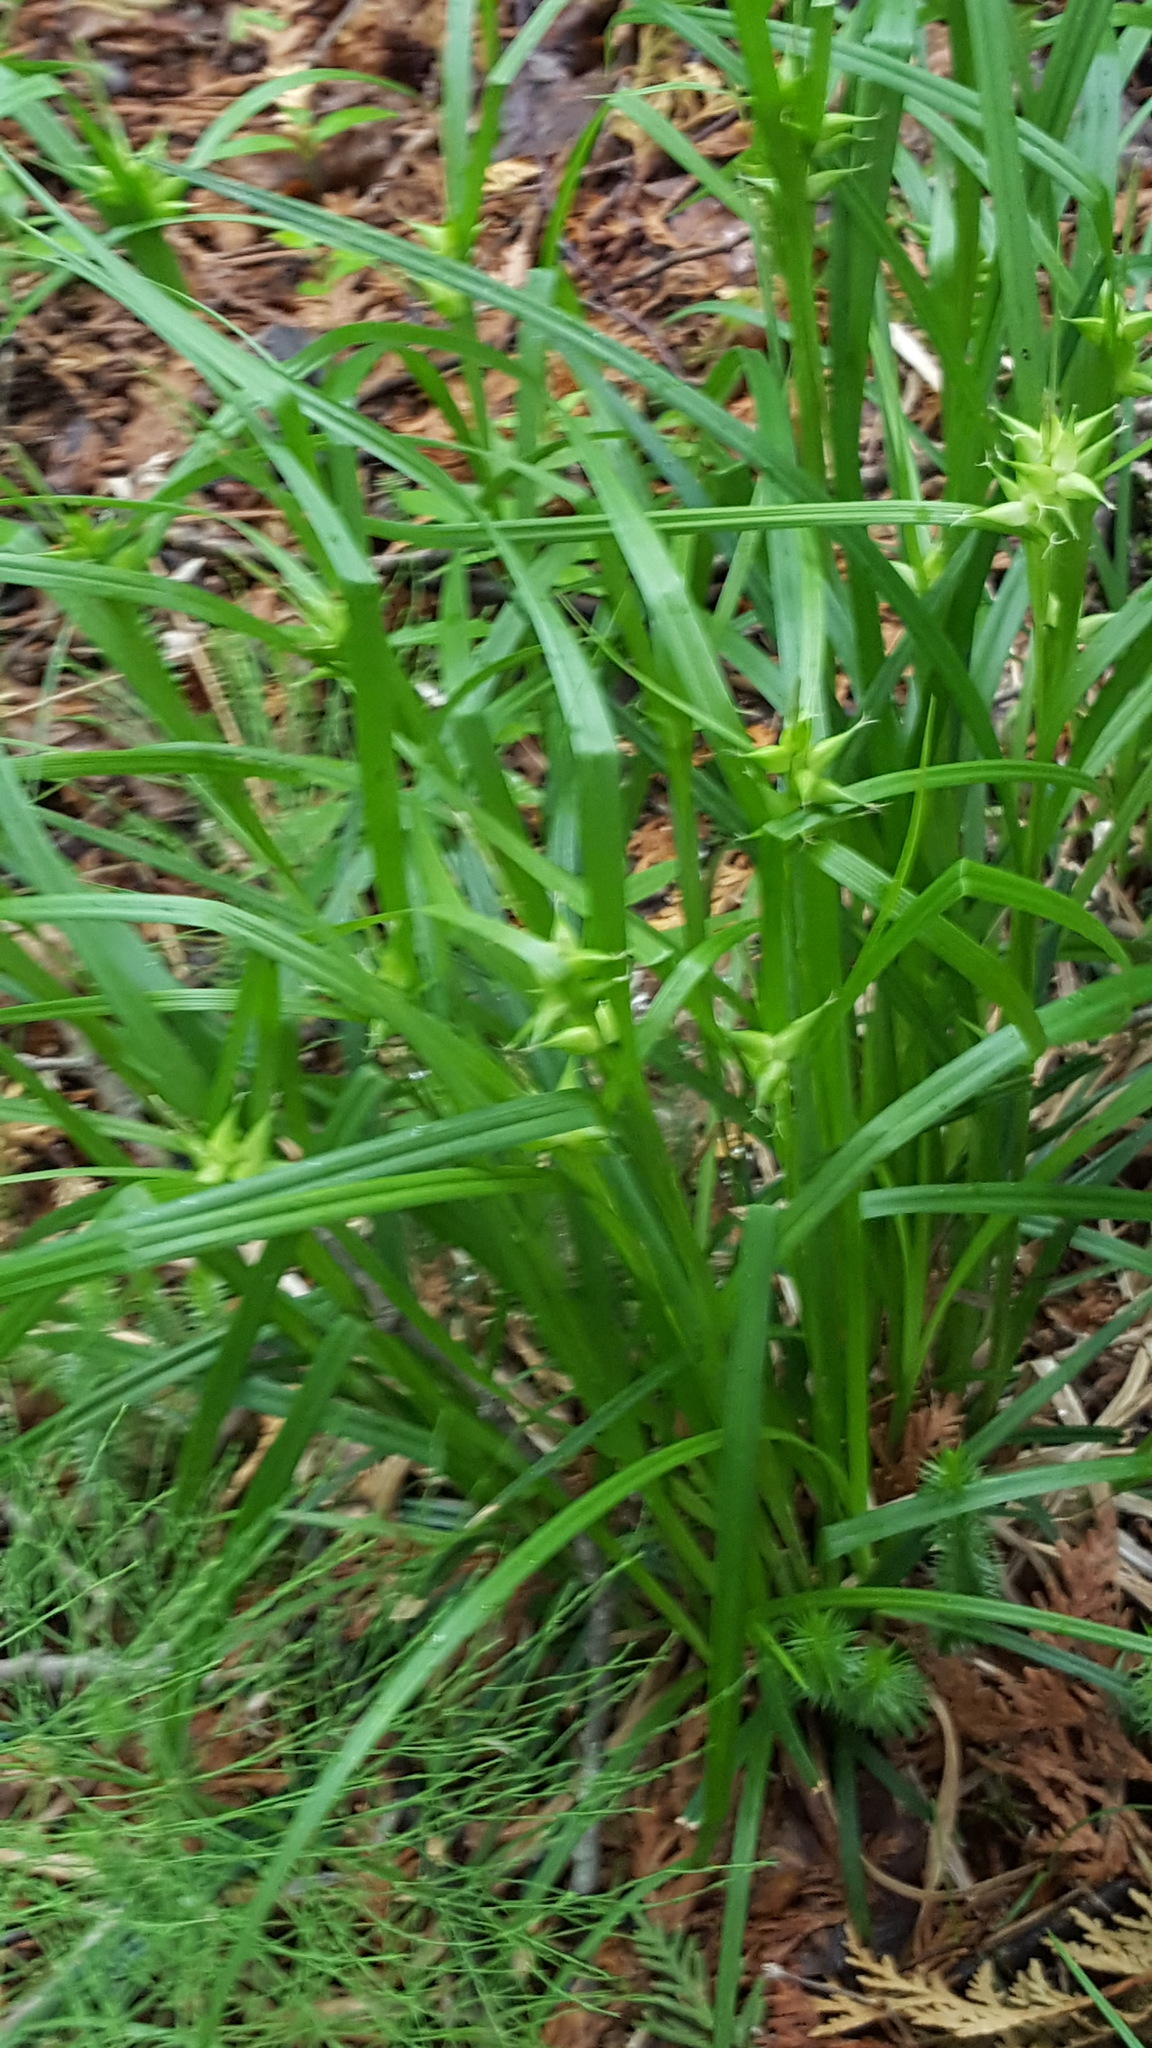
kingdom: Plantae
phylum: Tracheophyta
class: Liliopsida
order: Poales
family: Cyperaceae
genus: Carex
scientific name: Carex intumescens
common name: Greater bladder sedge
